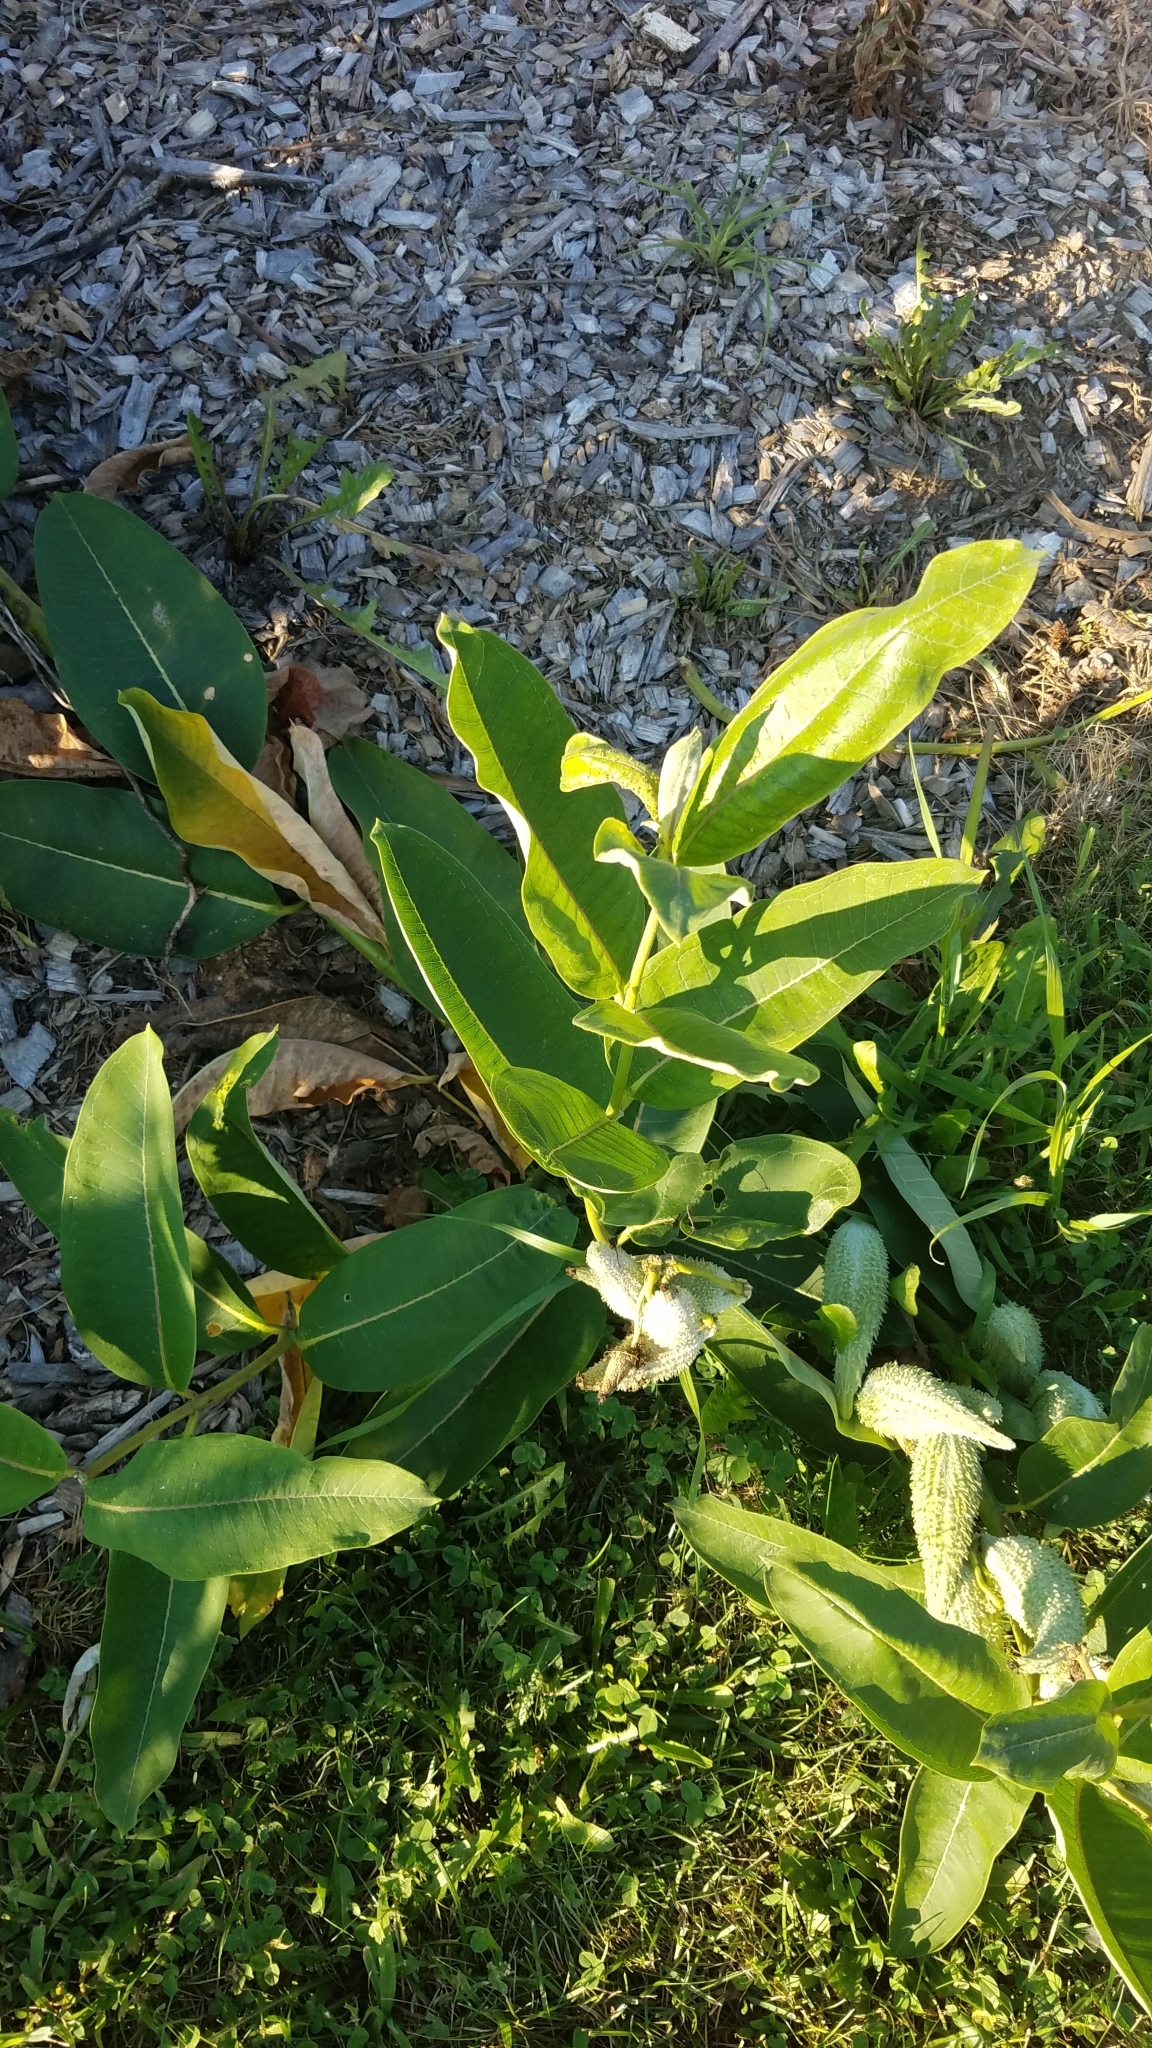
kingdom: Plantae
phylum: Tracheophyta
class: Magnoliopsida
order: Gentianales
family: Apocynaceae
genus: Asclepias
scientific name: Asclepias syriaca
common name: Common milkweed
